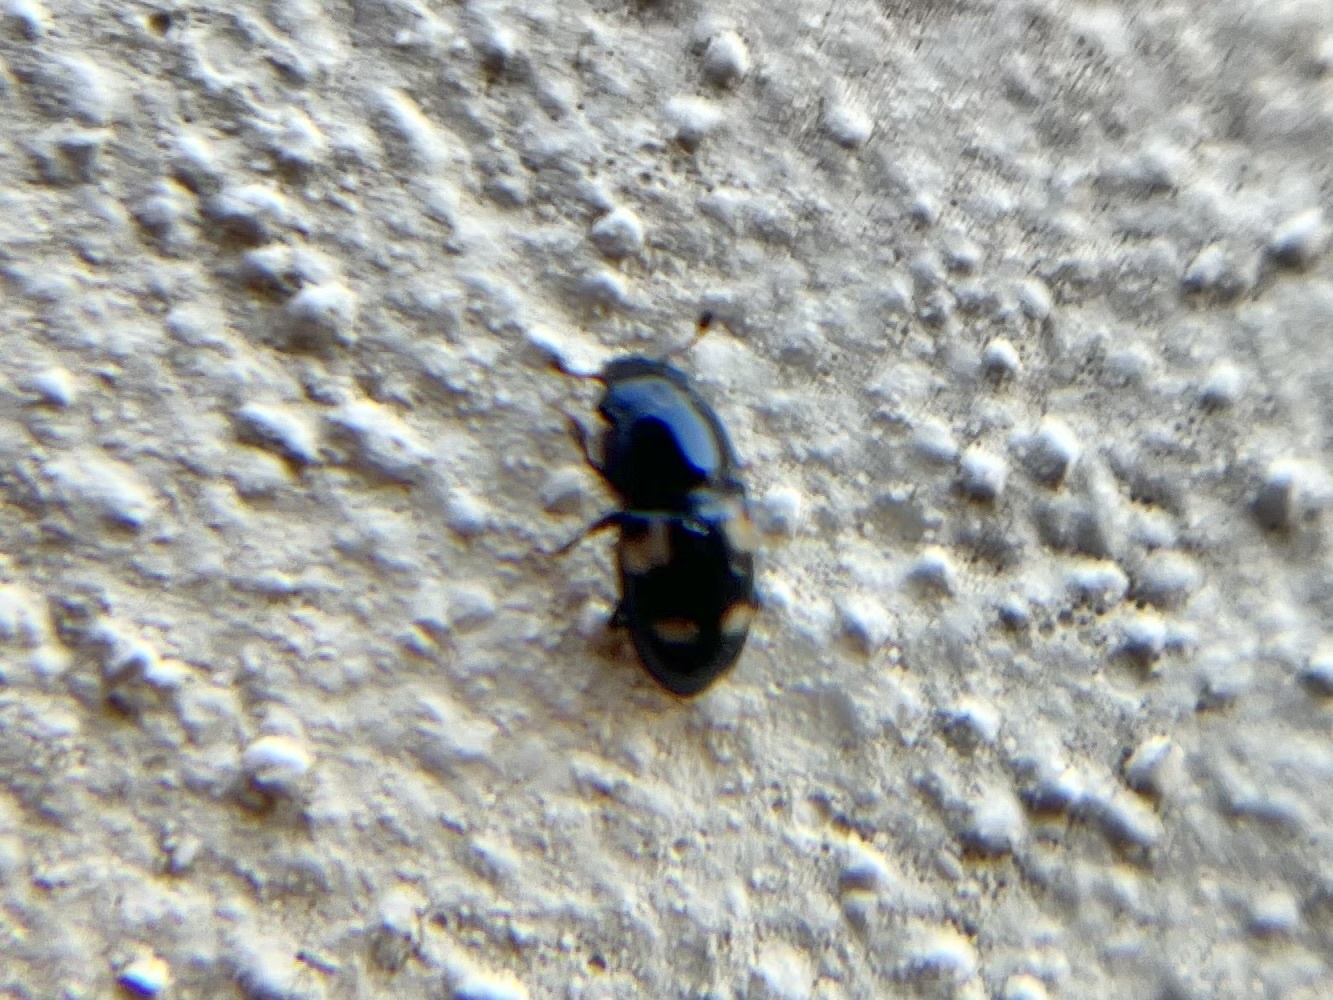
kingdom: Animalia
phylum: Arthropoda
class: Insecta
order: Coleoptera
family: Nitidulidae
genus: Glischrochilus
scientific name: Glischrochilus quadrisignatus
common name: Picnic beetle
